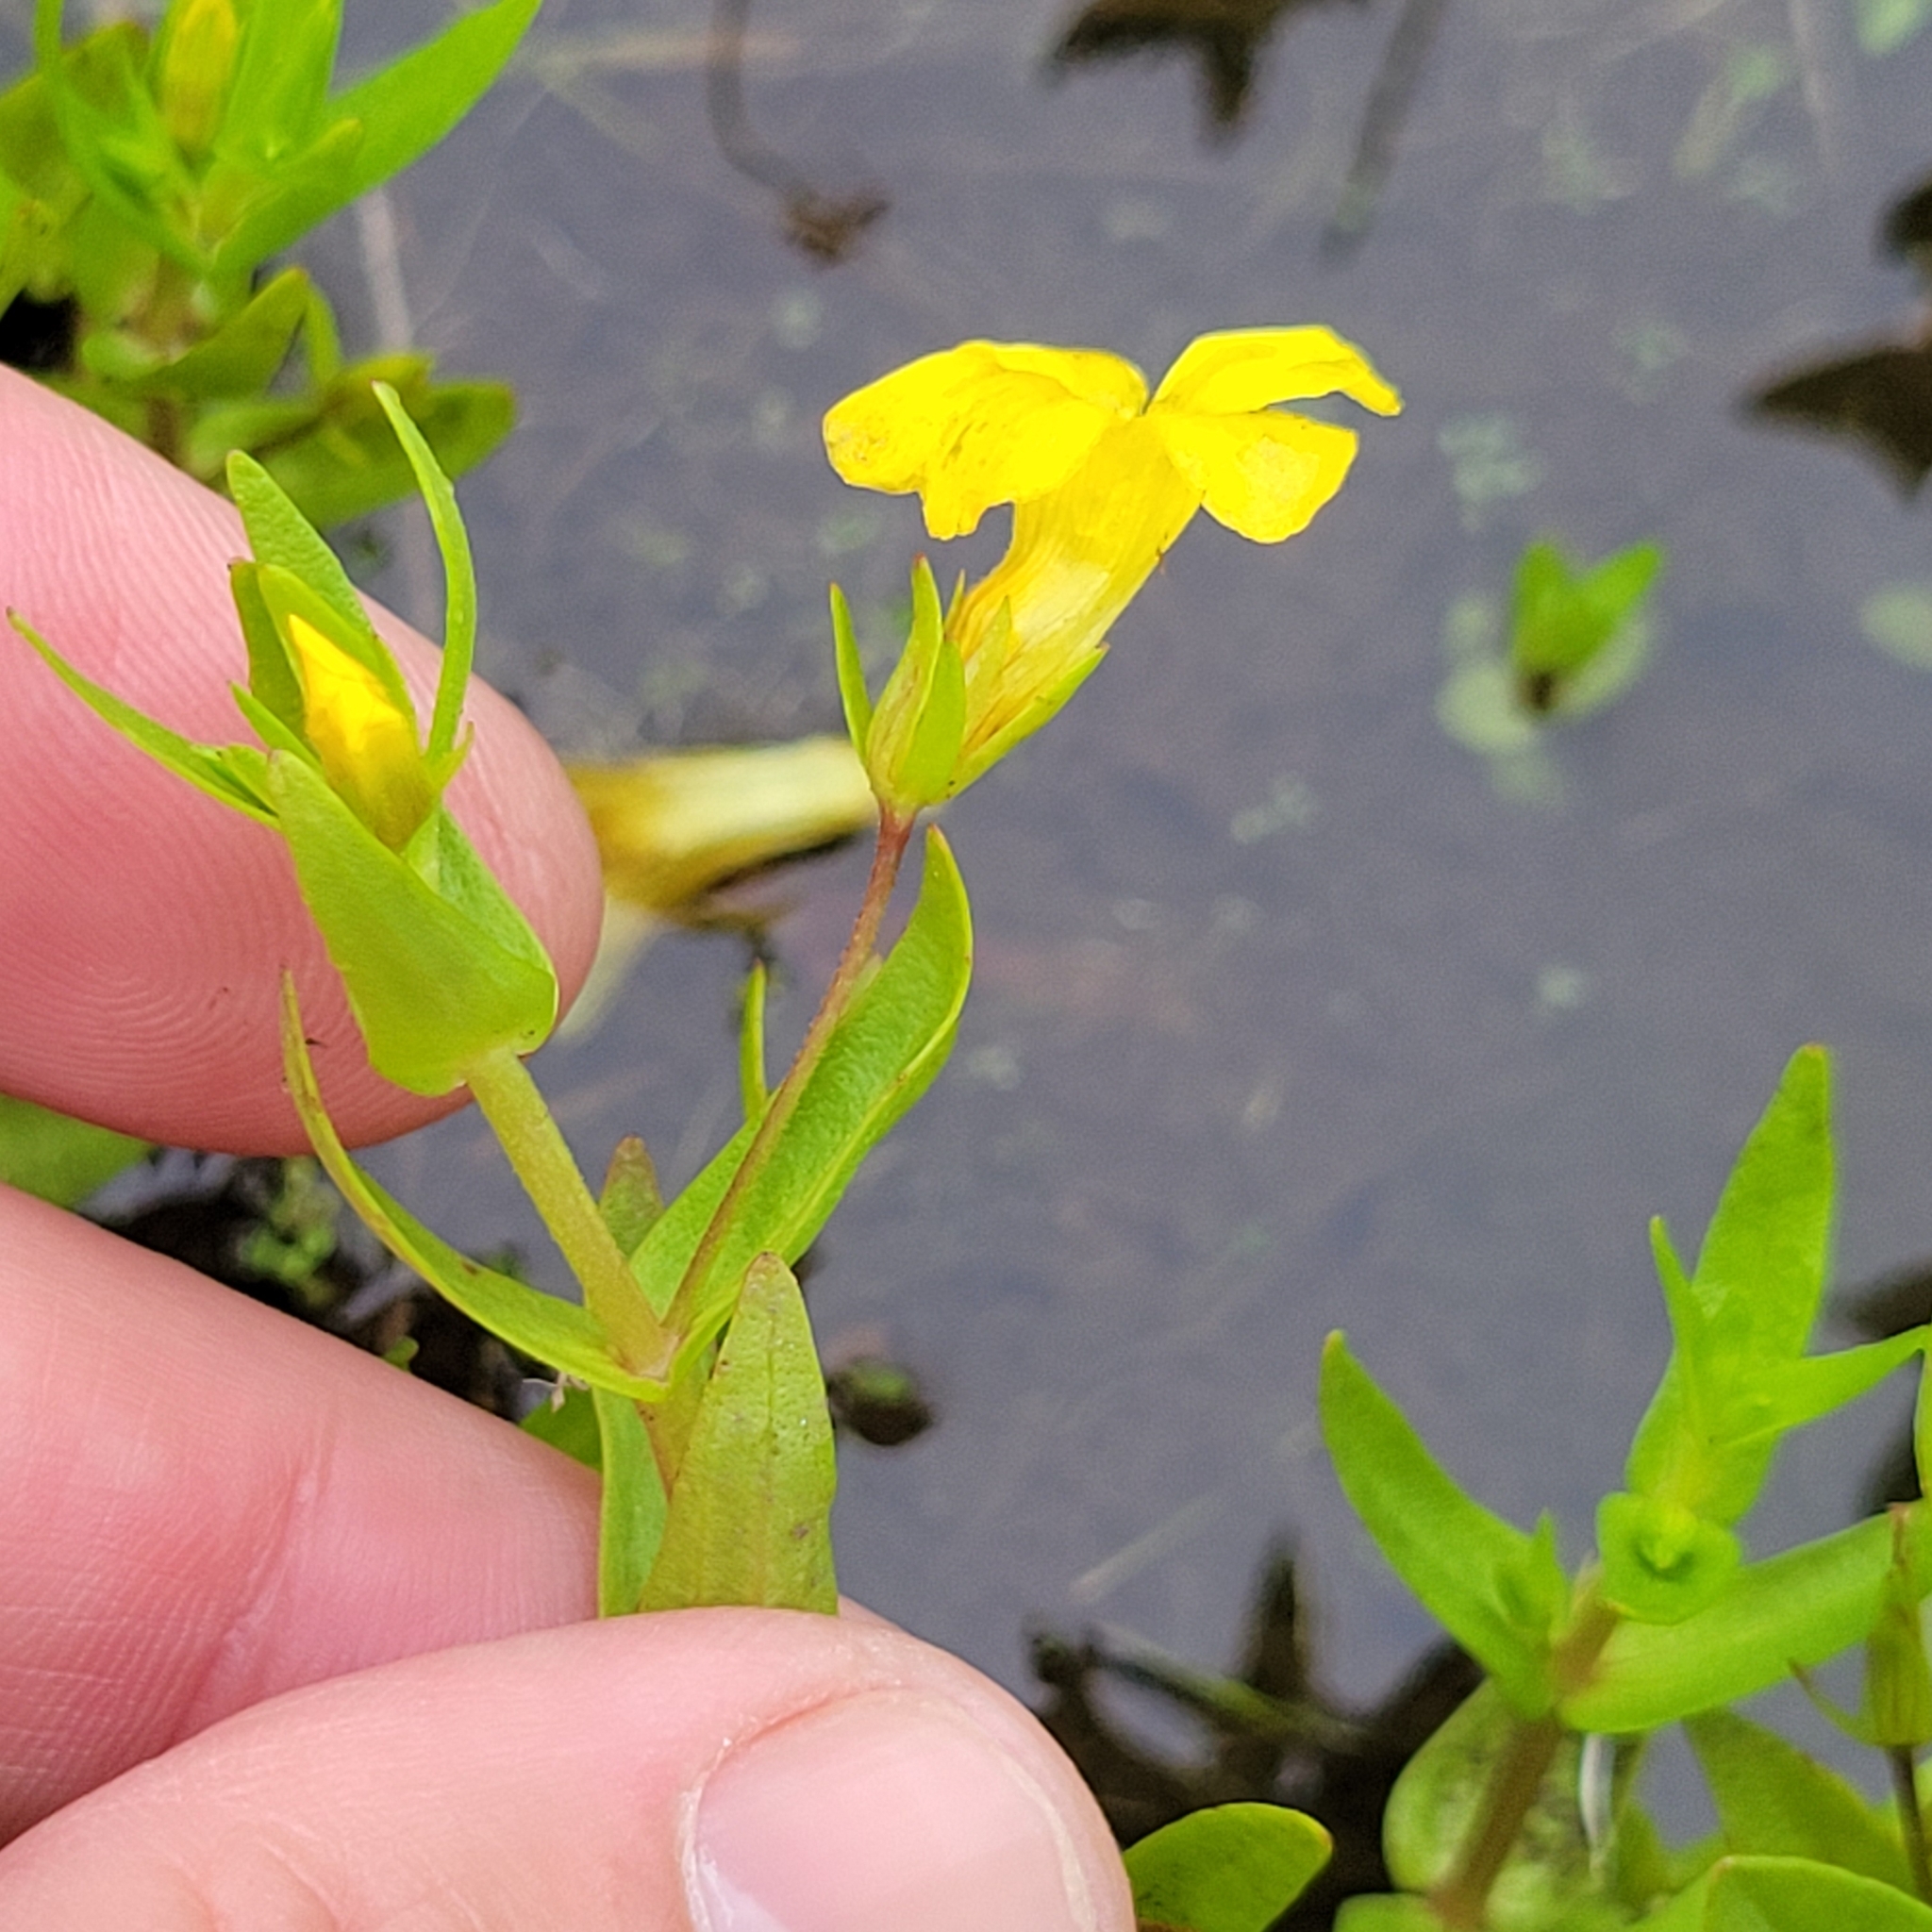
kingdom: Plantae
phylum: Tracheophyta
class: Magnoliopsida
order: Lamiales
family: Plantaginaceae
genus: Gratiola
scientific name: Gratiola lutea
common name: Golden hedge-hyssop
